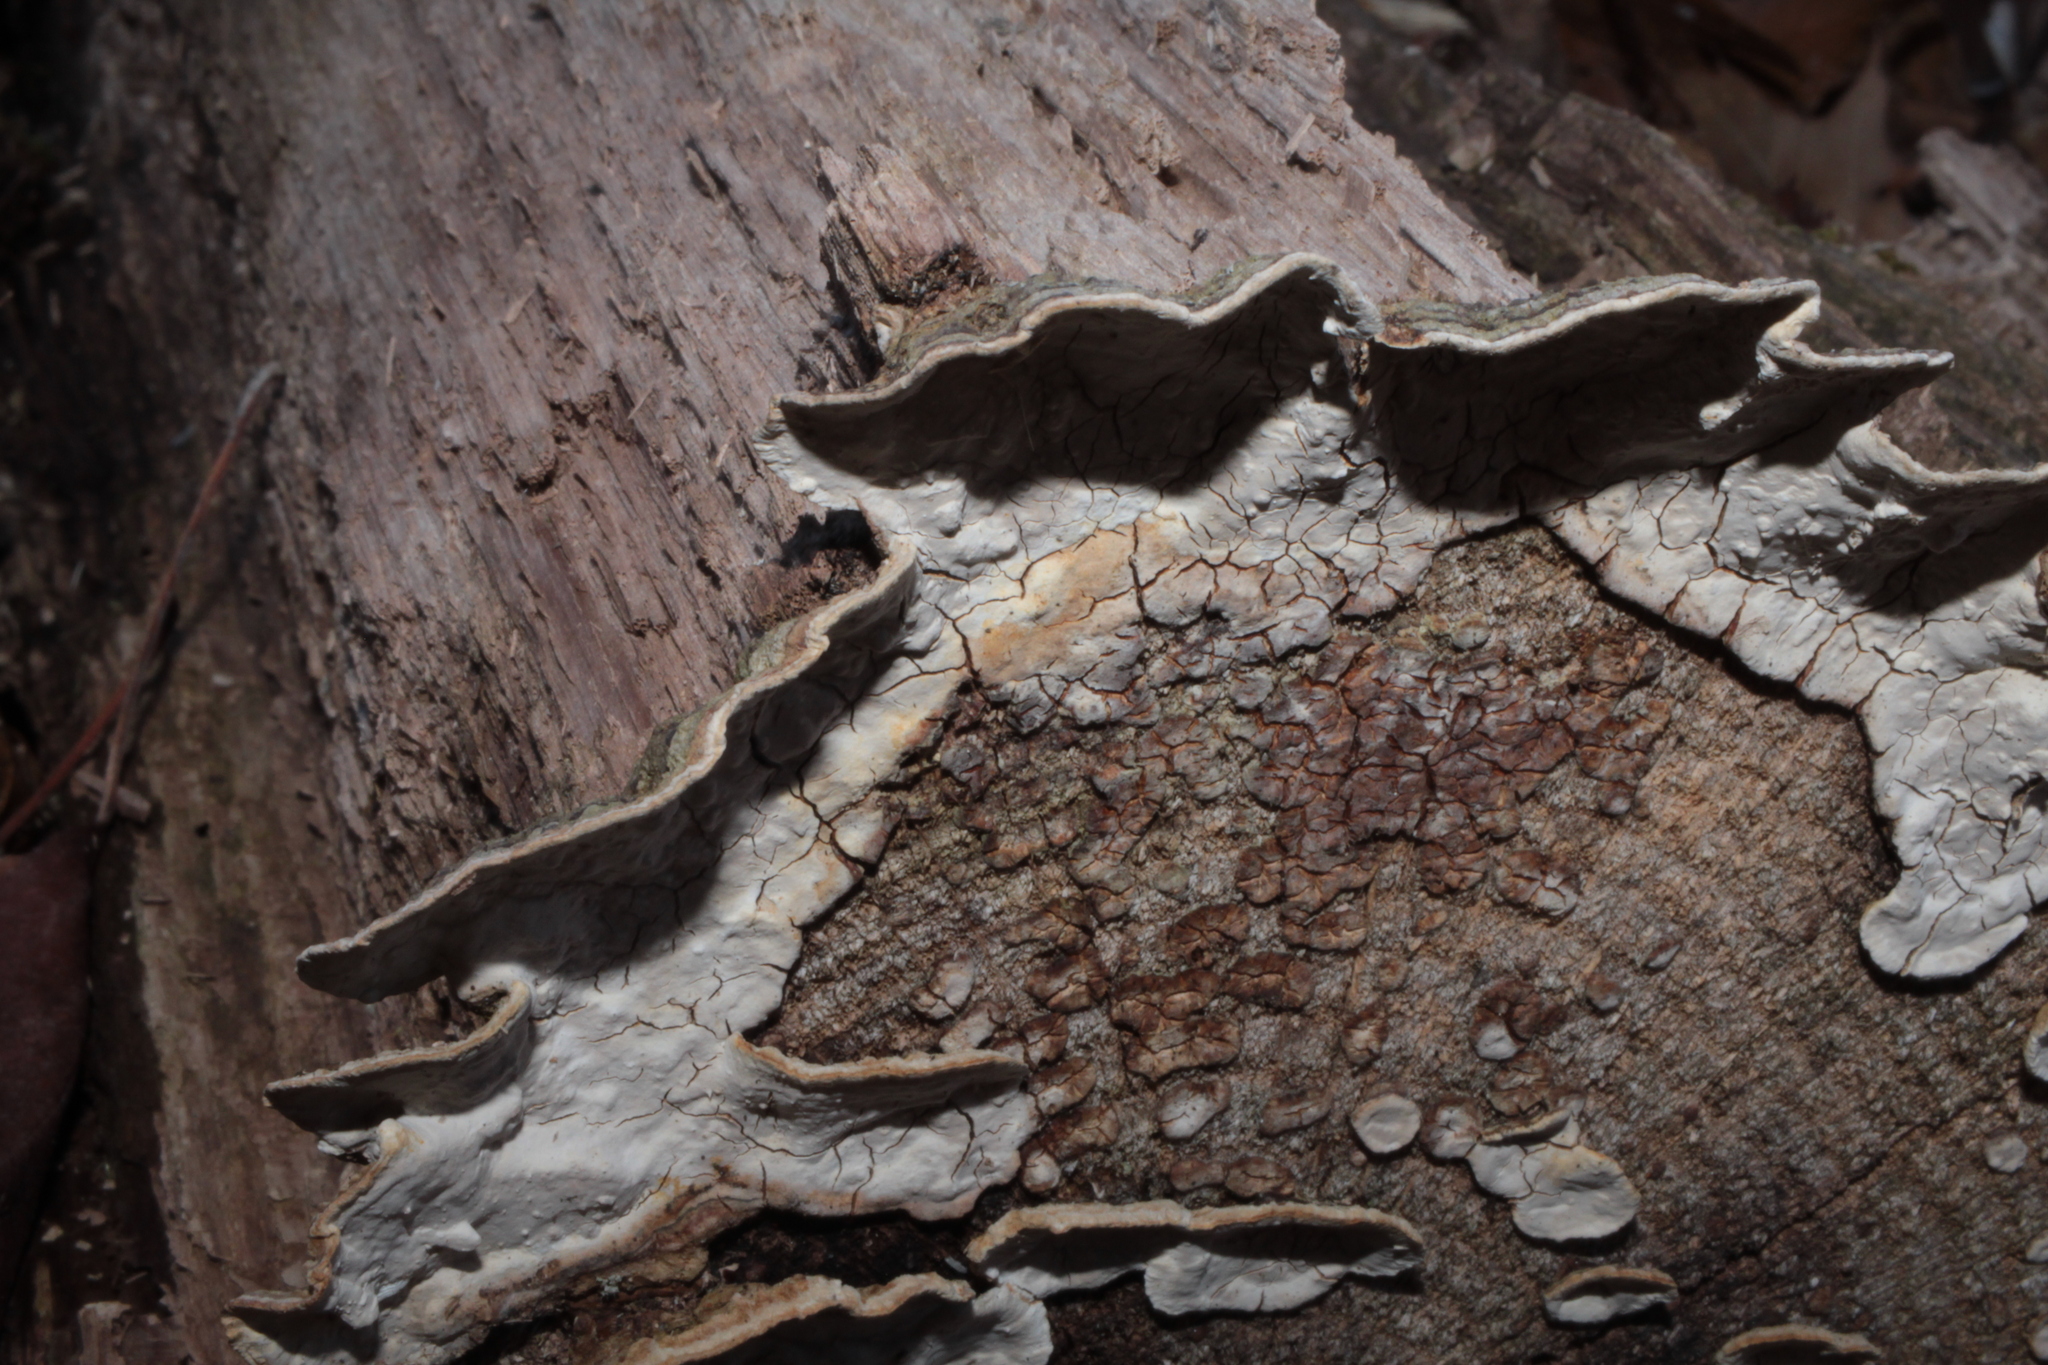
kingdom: Fungi
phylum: Basidiomycota
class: Agaricomycetes
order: Russulales
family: Stereaceae
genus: Xylobolus
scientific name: Xylobolus subpileatus
